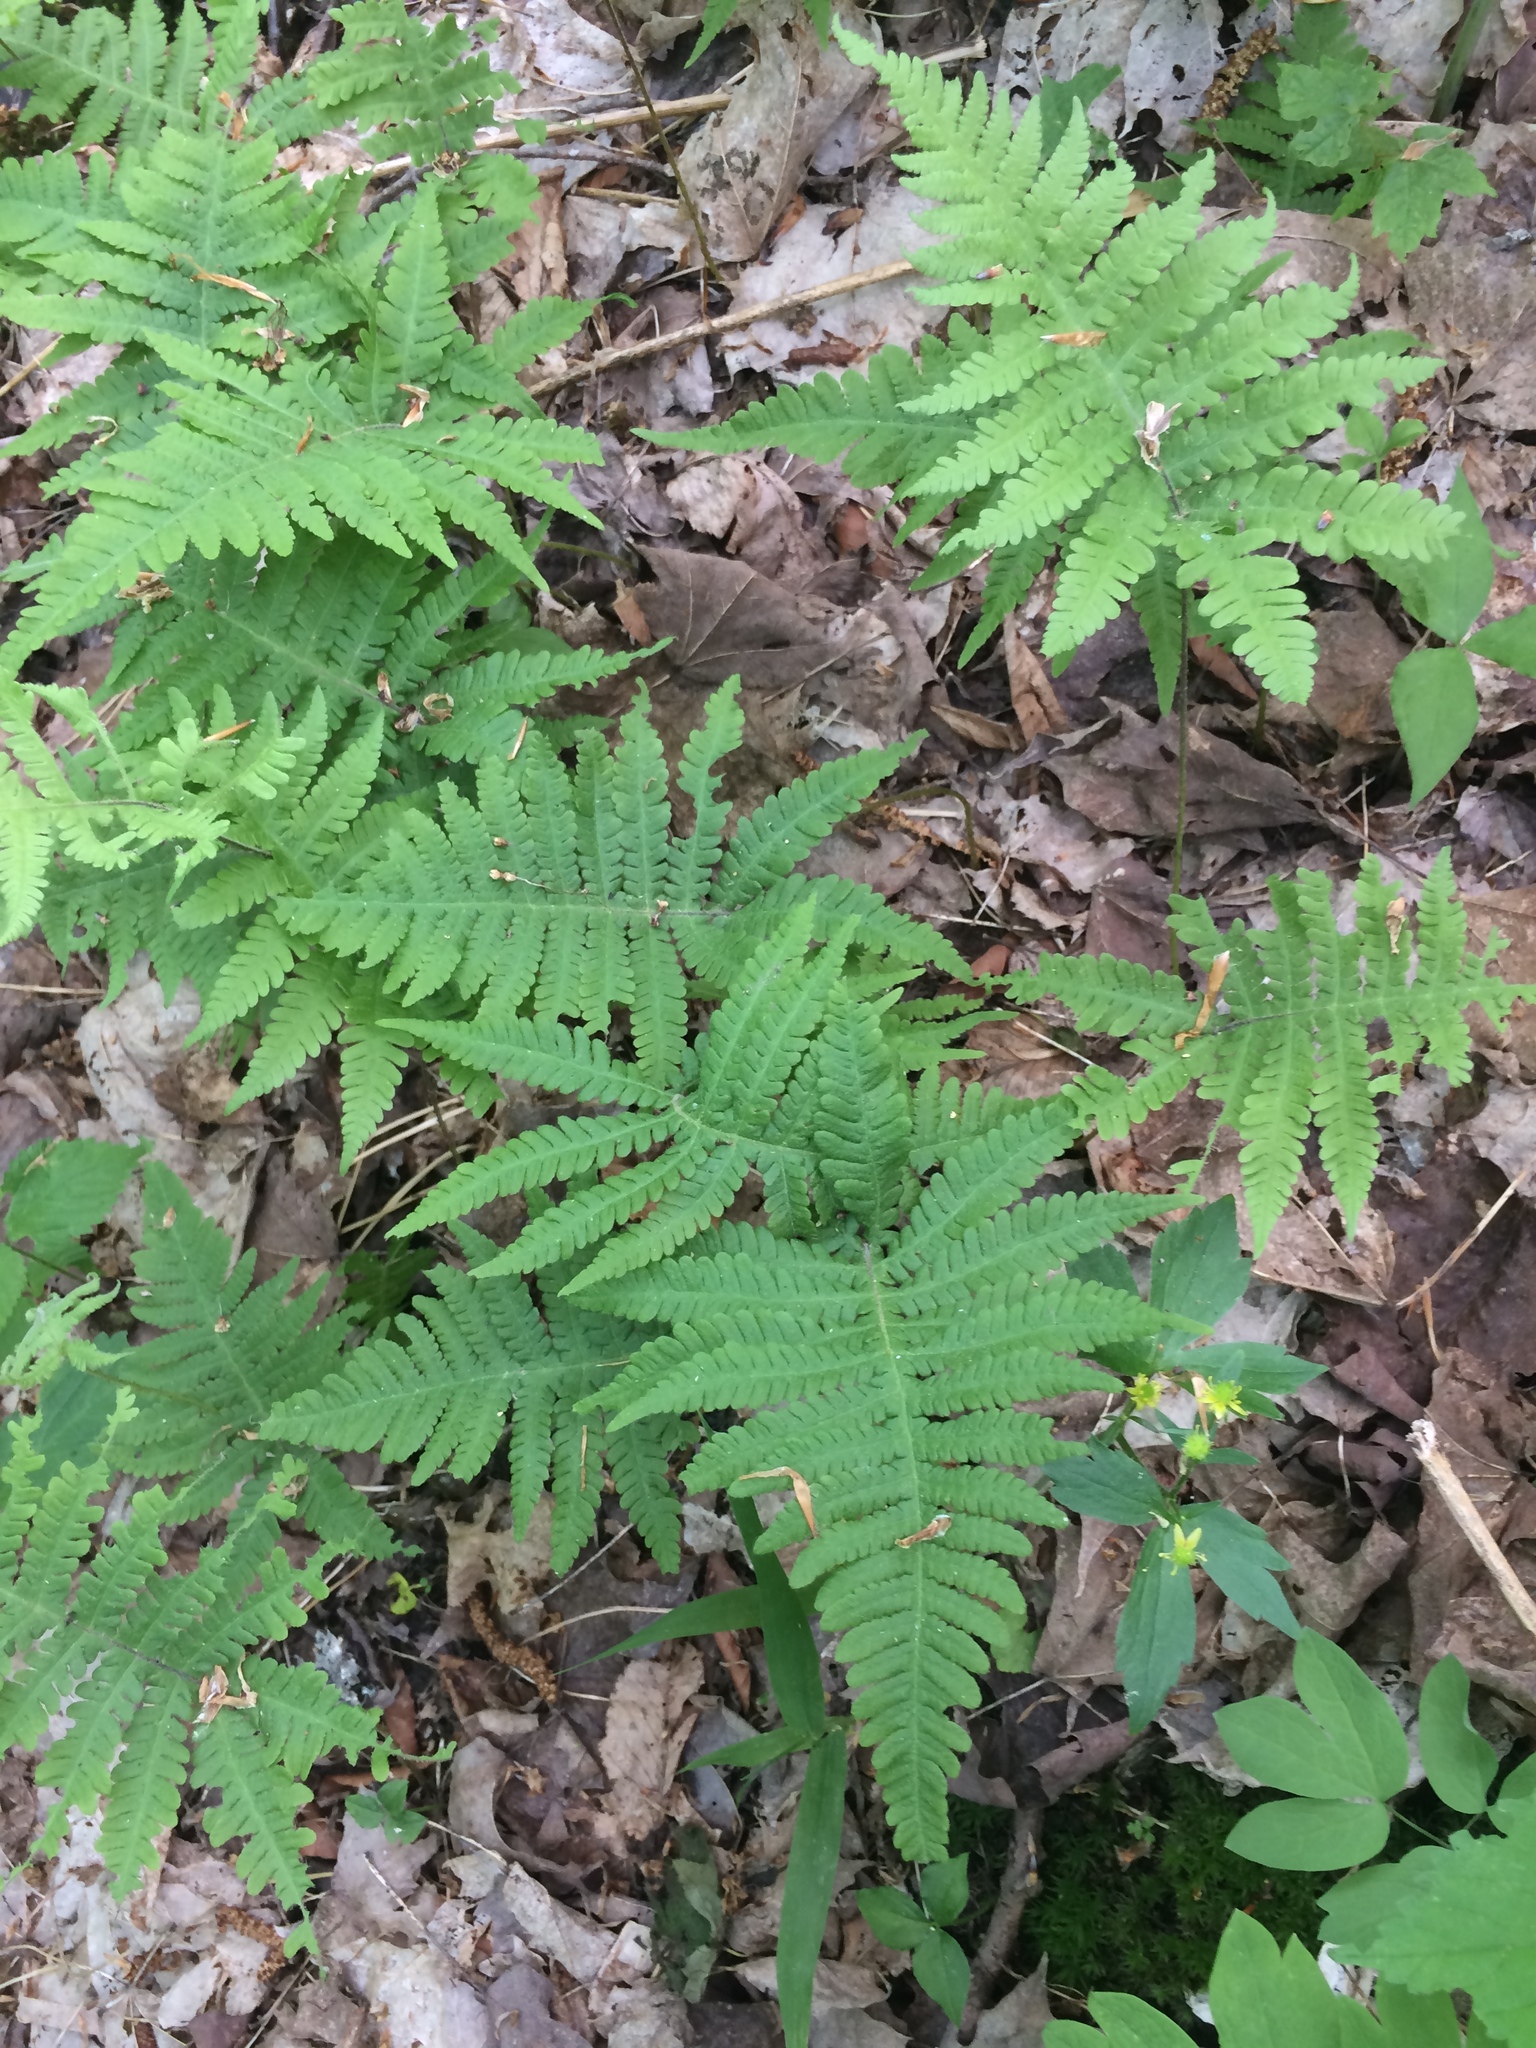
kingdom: Plantae
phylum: Tracheophyta
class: Polypodiopsida
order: Polypodiales
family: Thelypteridaceae
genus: Phegopteris
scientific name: Phegopteris connectilis
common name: Beech fern
